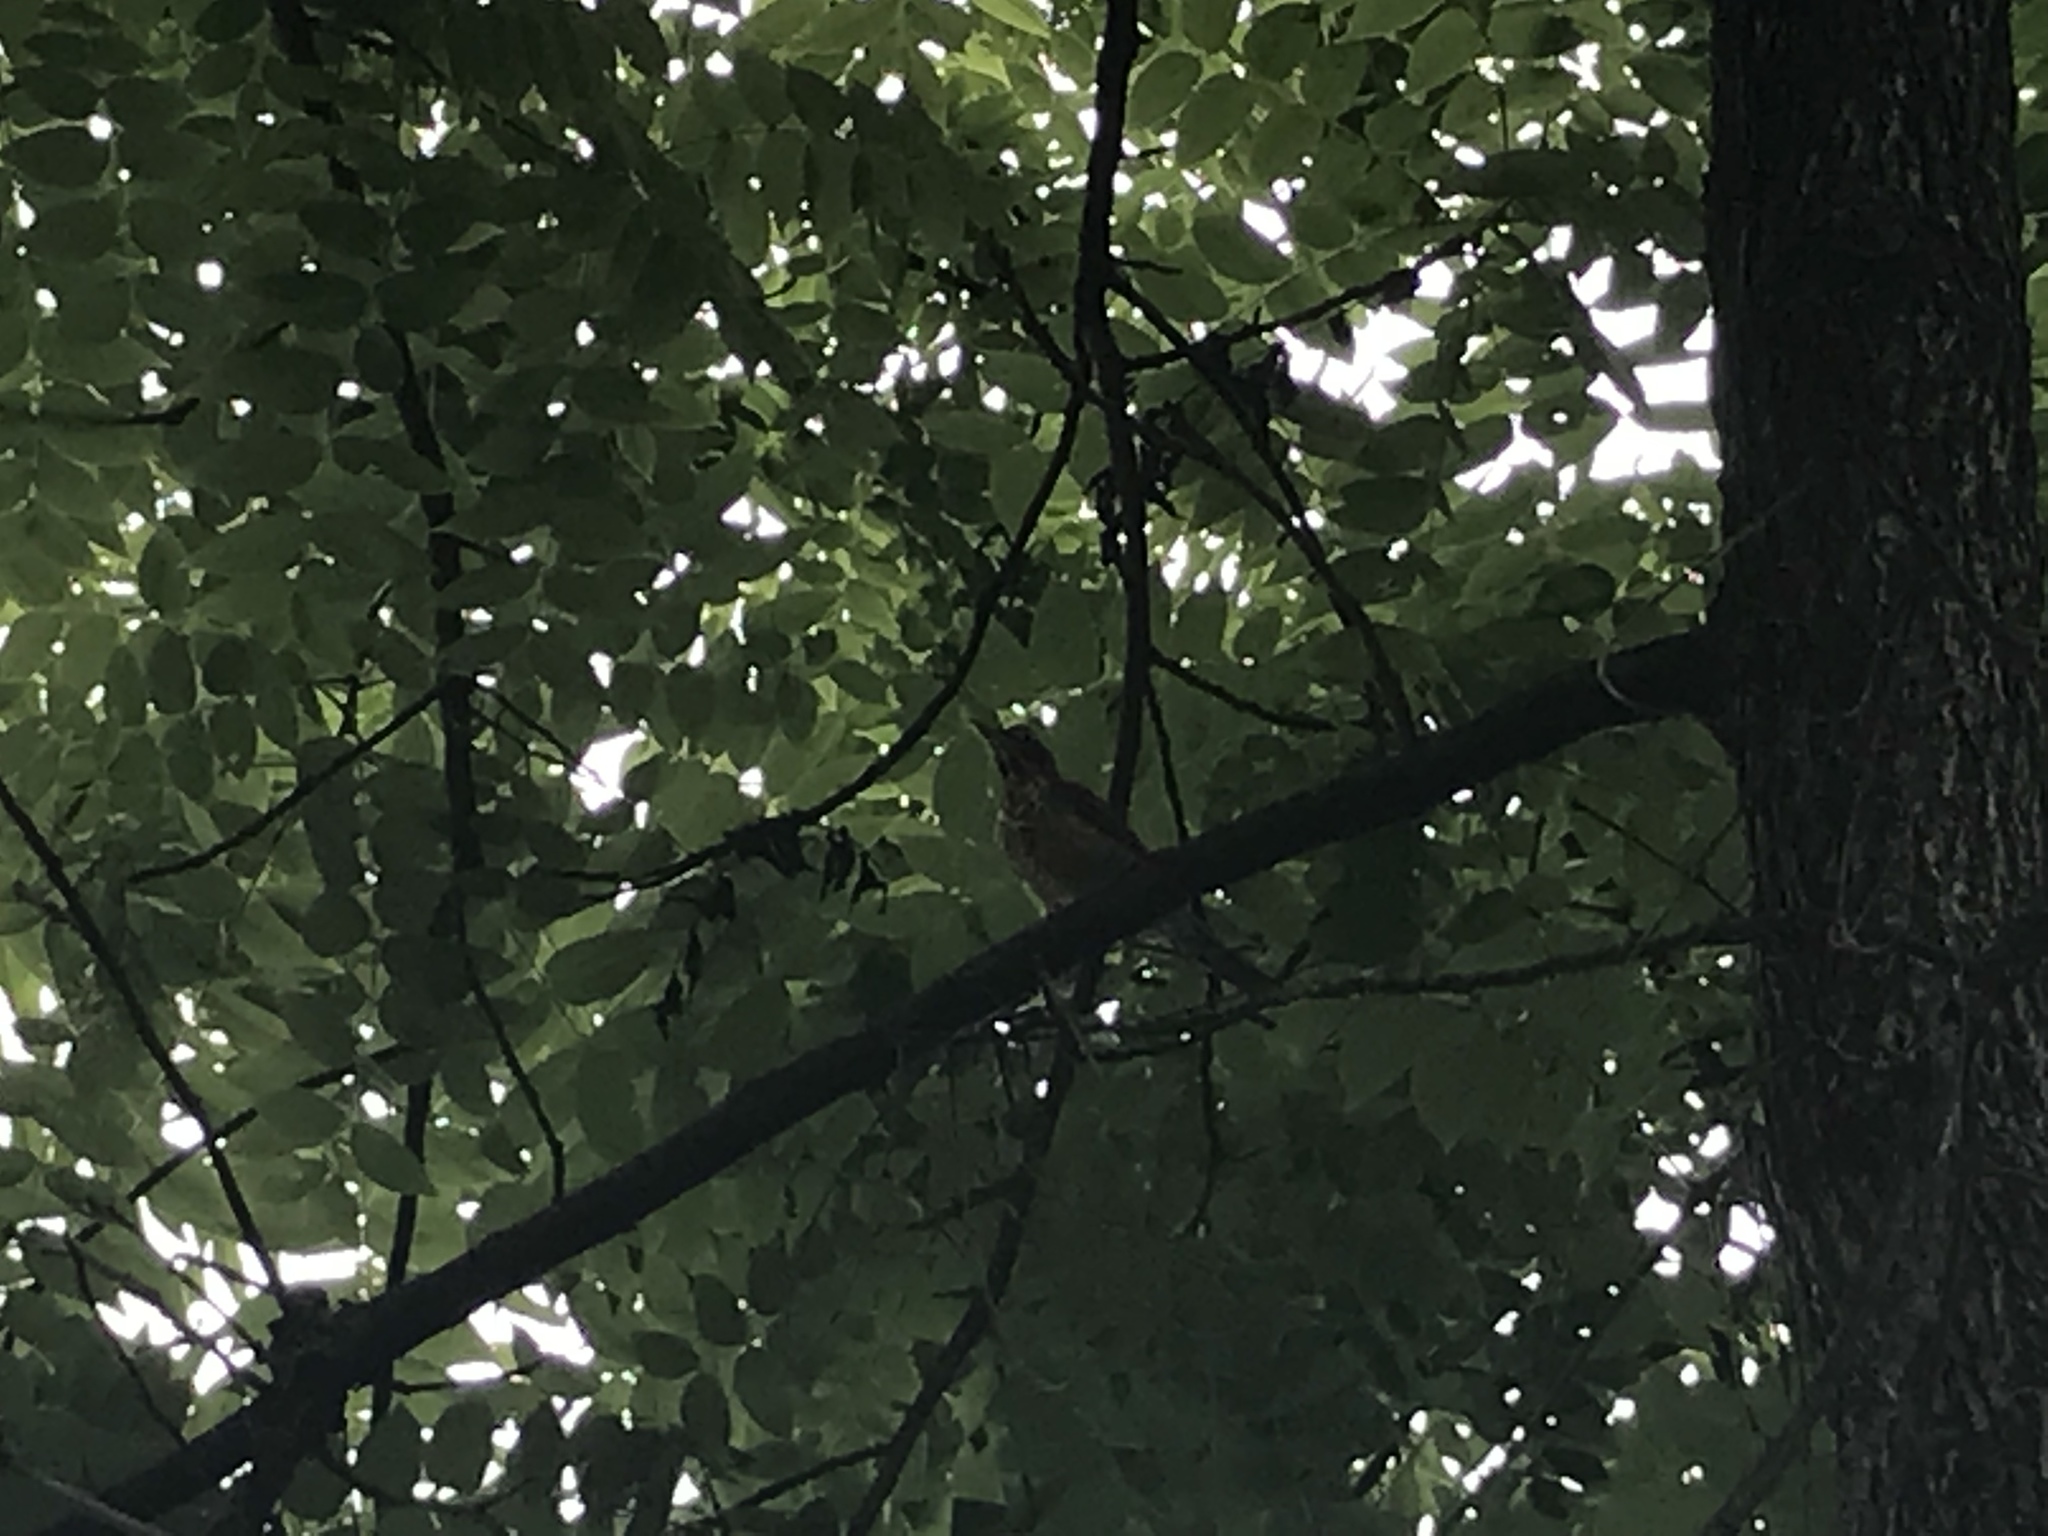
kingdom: Animalia
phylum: Chordata
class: Aves
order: Passeriformes
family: Turdidae
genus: Turdus
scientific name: Turdus migratorius
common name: American robin
